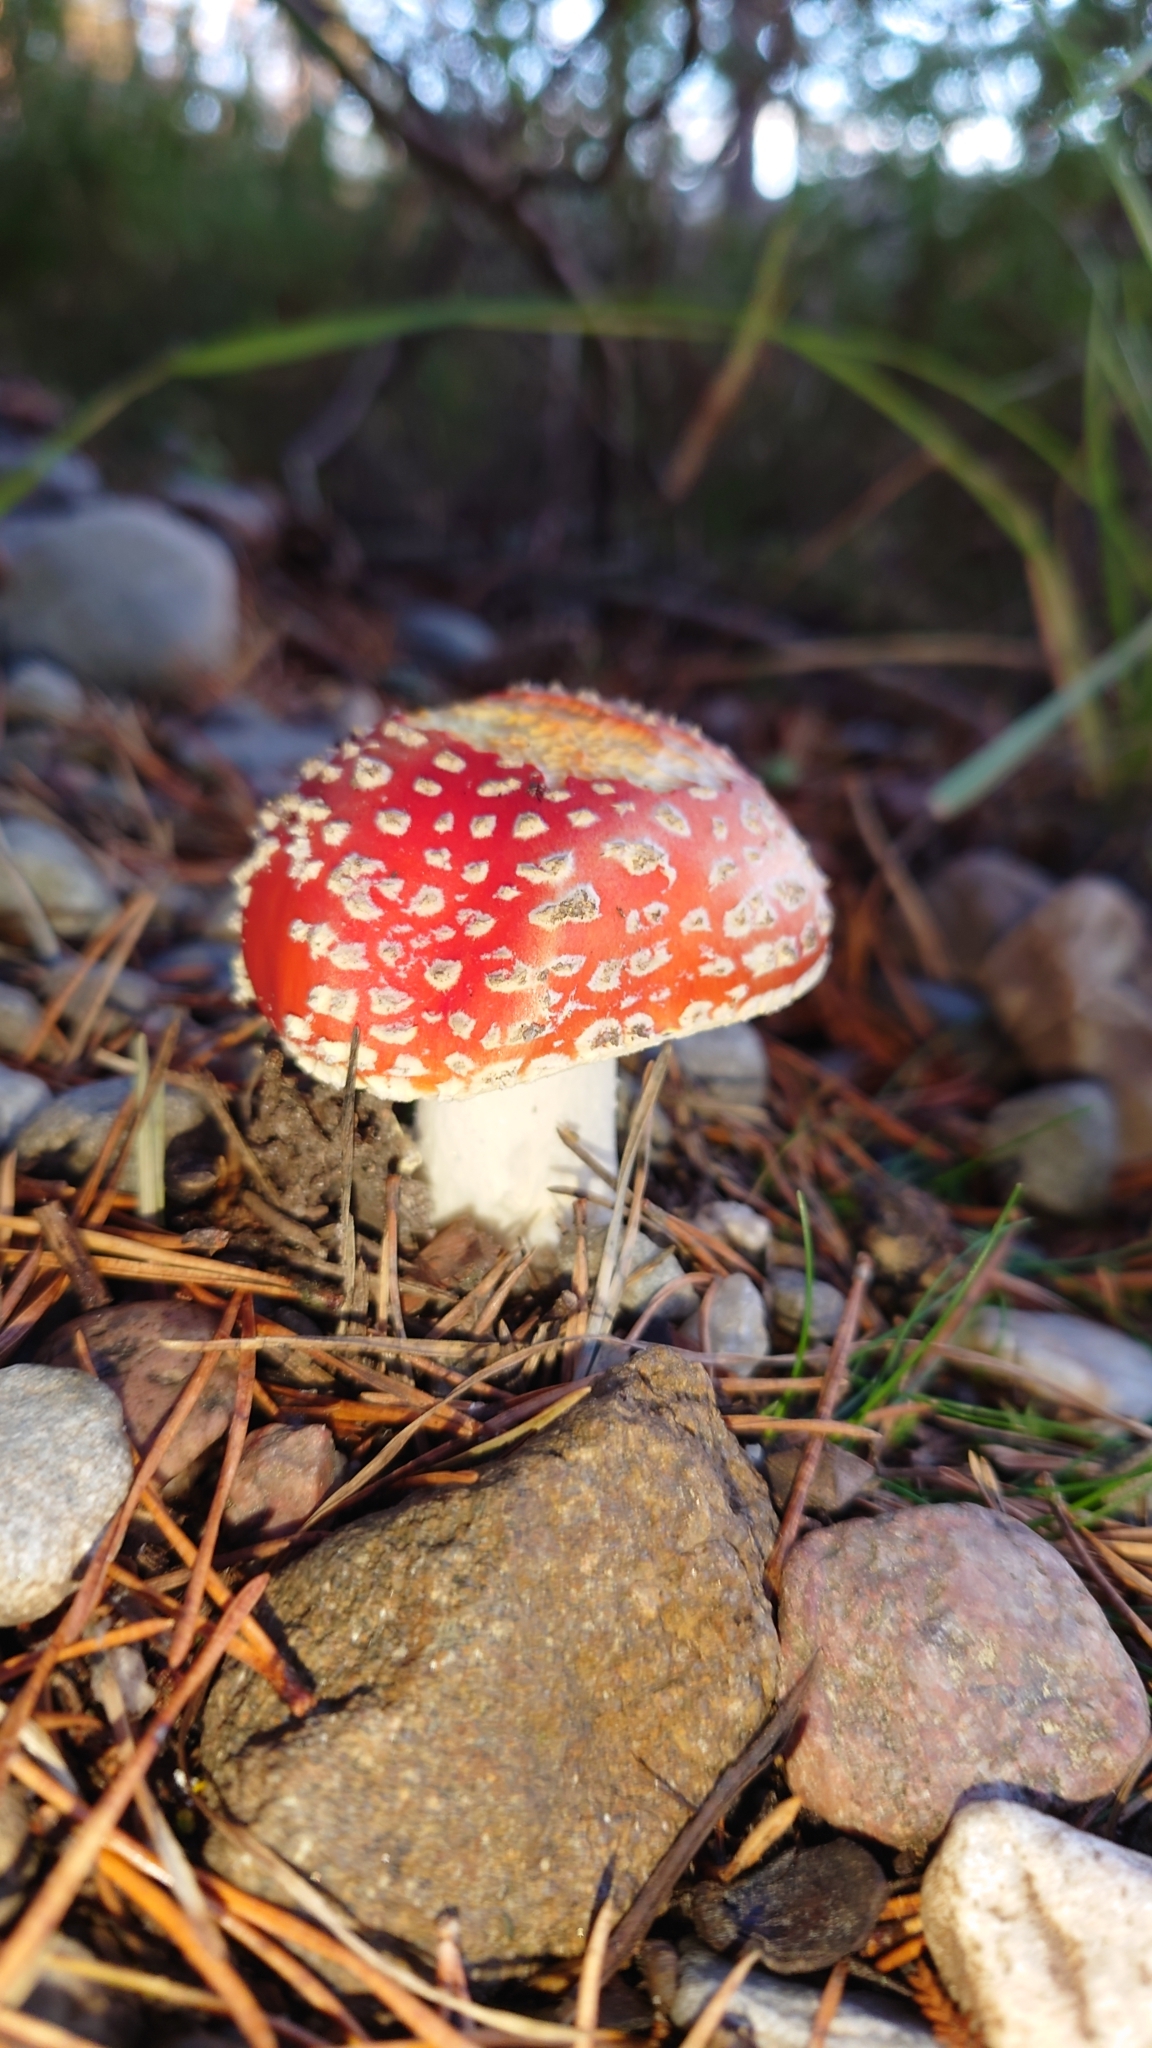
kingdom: Fungi
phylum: Basidiomycota
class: Agaricomycetes
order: Agaricales
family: Amanitaceae
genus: Amanita
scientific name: Amanita muscaria
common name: Fly agaric
